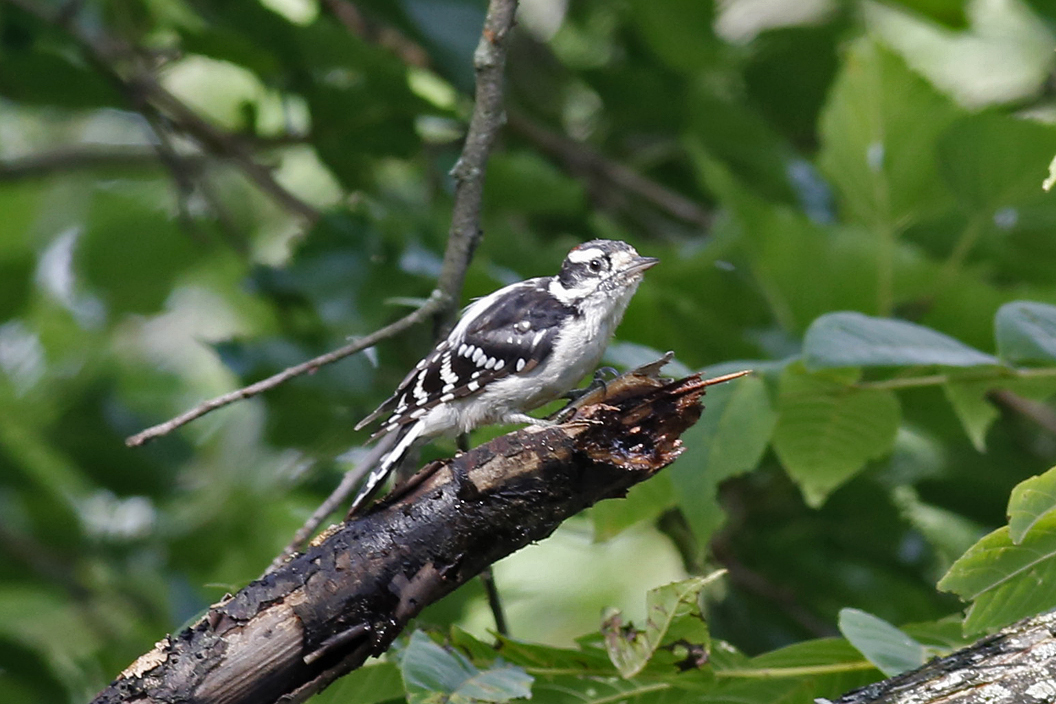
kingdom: Animalia
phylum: Chordata
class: Aves
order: Piciformes
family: Picidae
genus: Dryobates
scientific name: Dryobates pubescens
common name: Downy woodpecker
